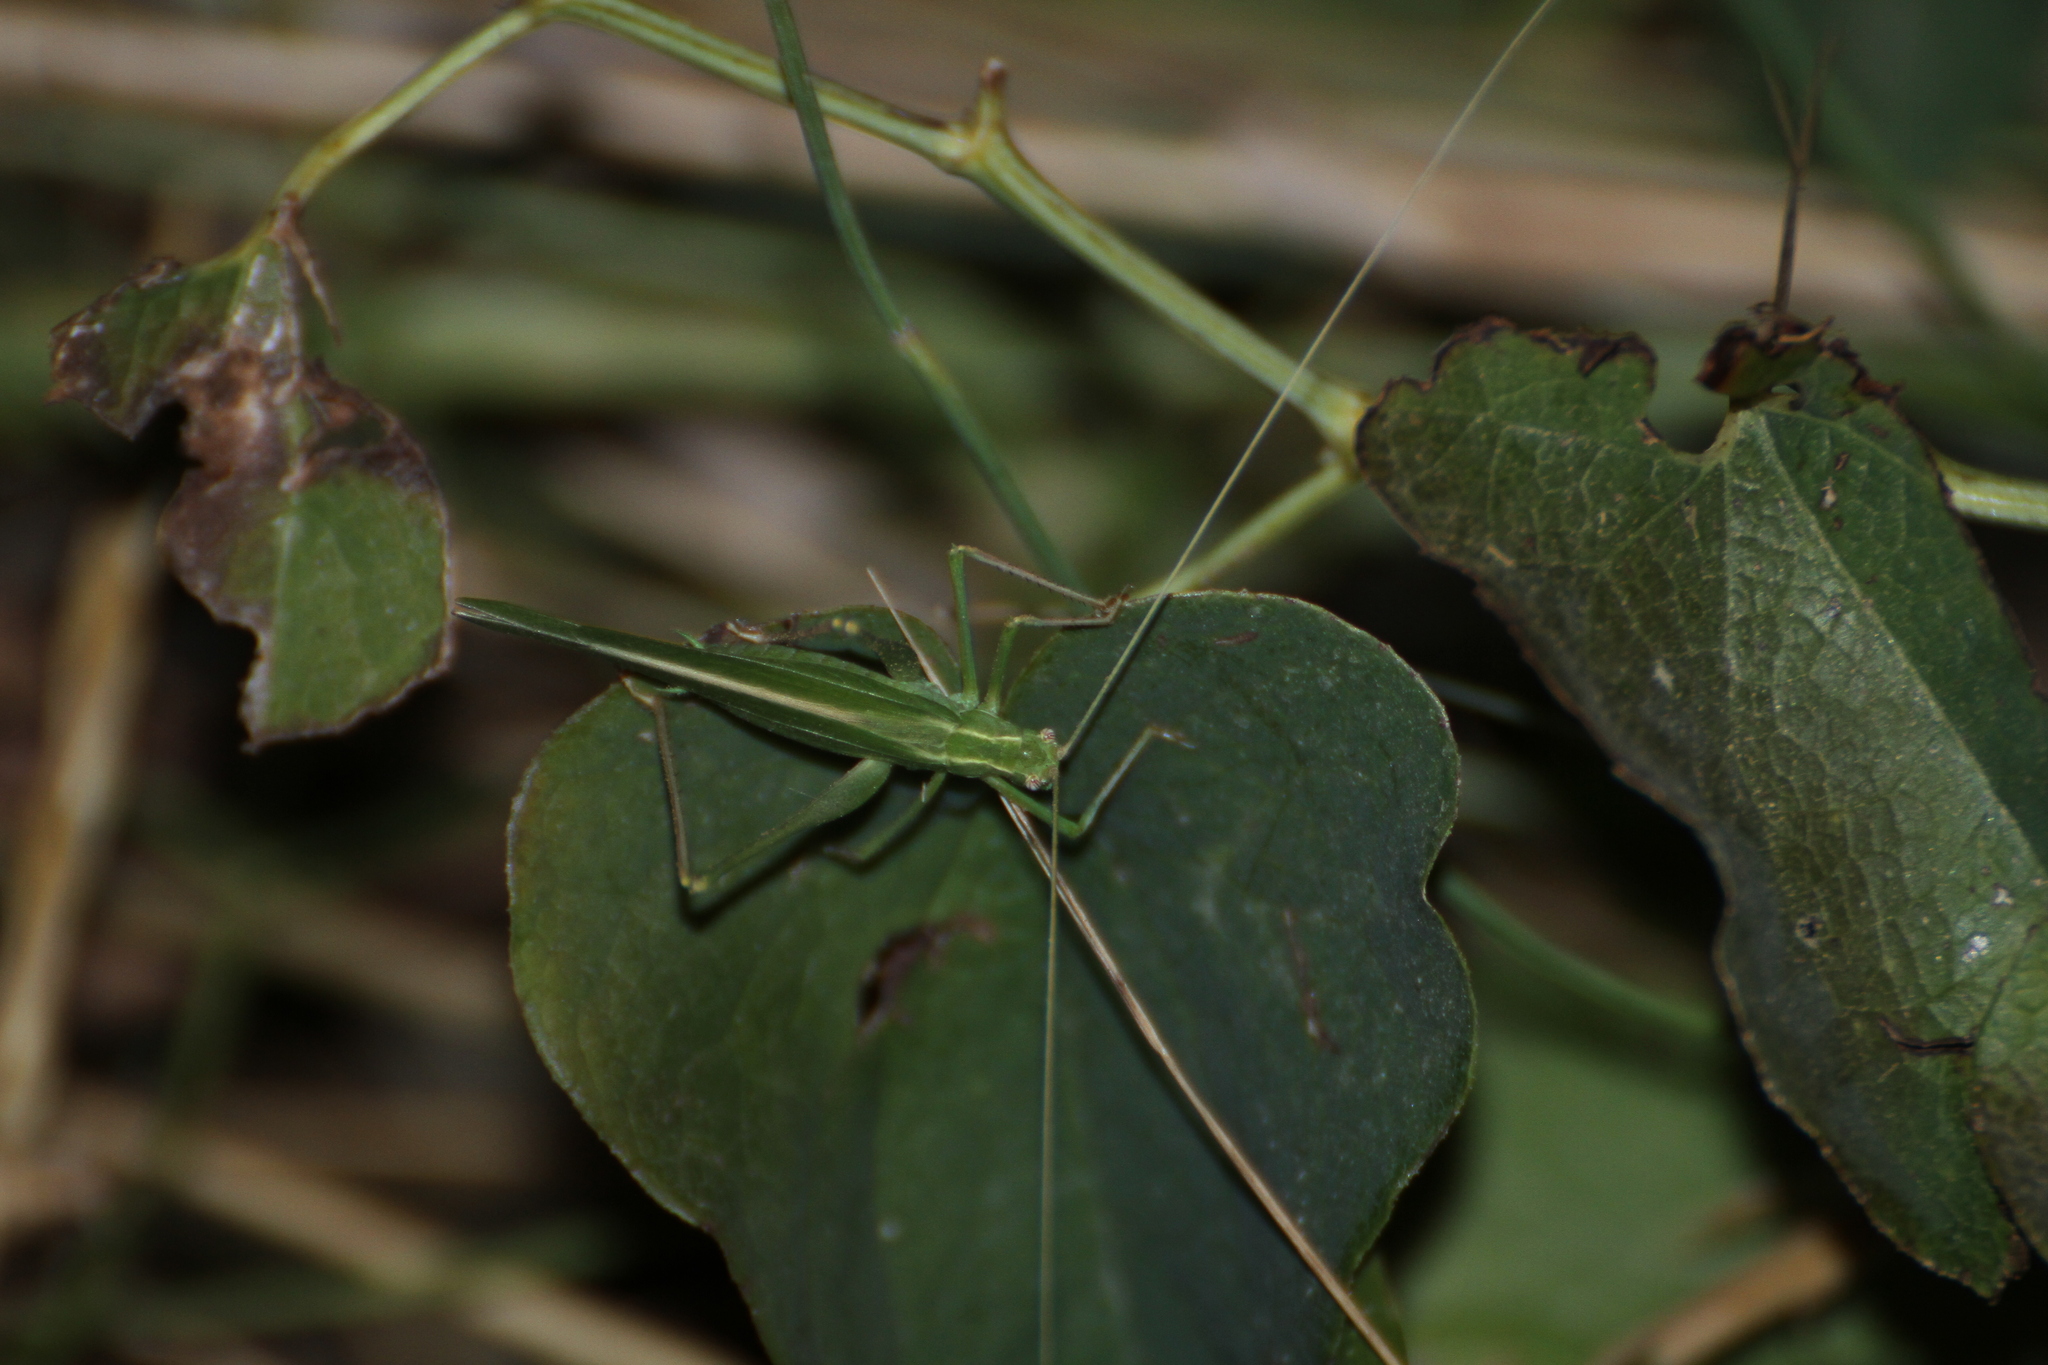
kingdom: Animalia
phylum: Arthropoda
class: Insecta
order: Orthoptera
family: Tettigoniidae
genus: Tylopsis
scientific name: Tylopsis lilifolia
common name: Lily bush-cricket
